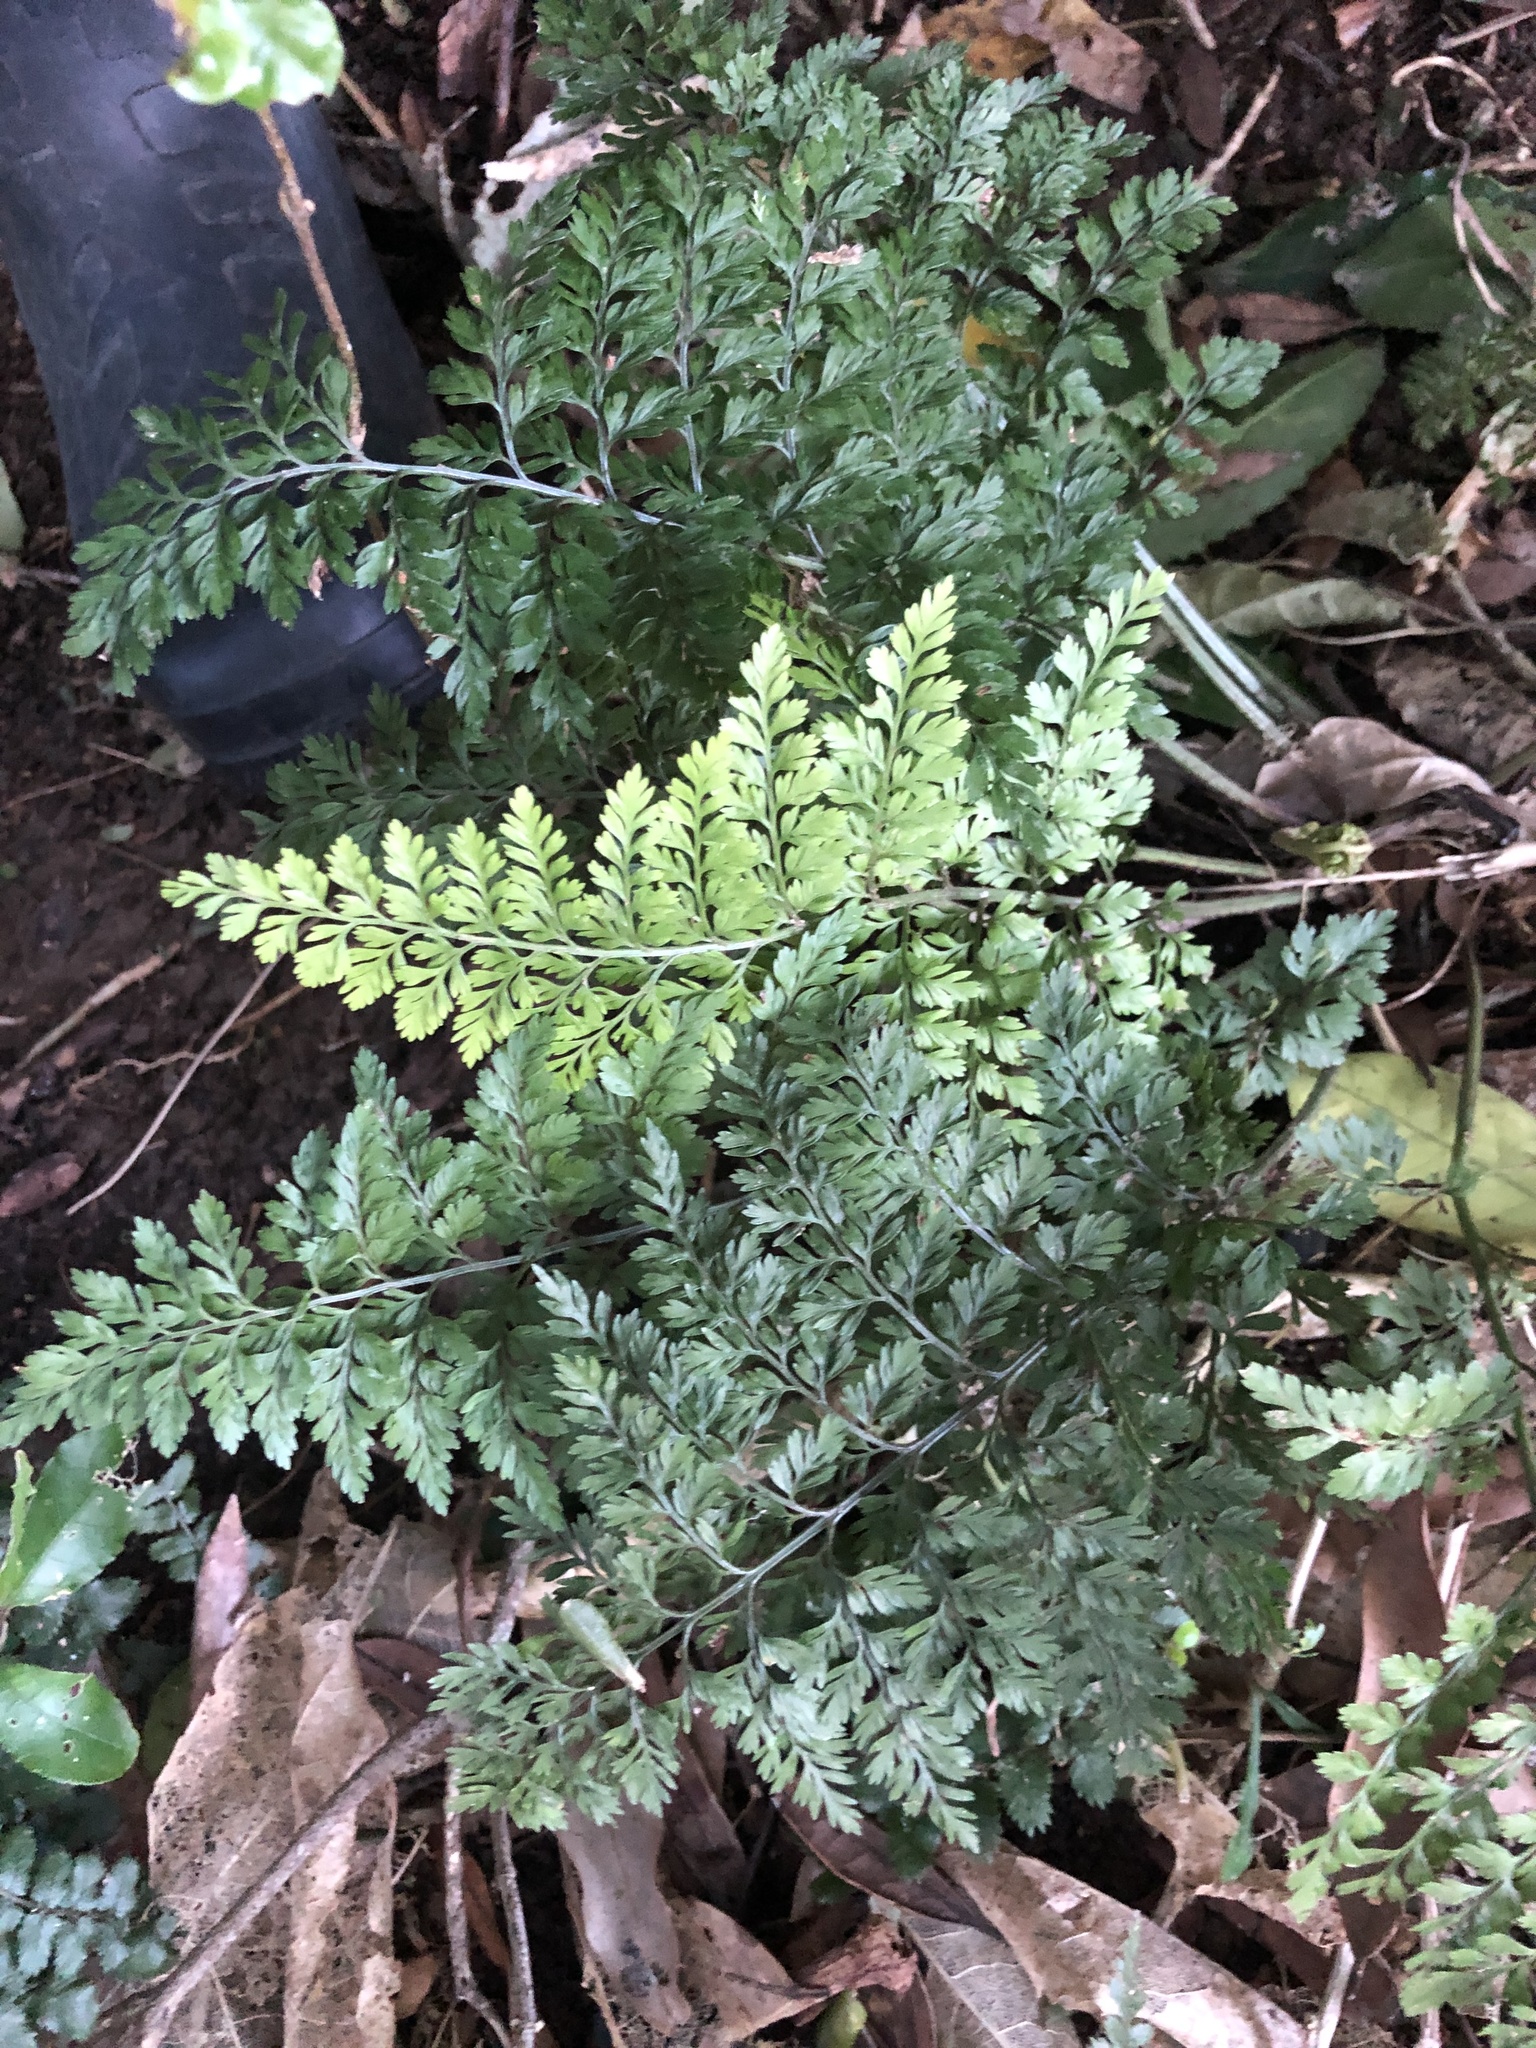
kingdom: Plantae
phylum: Tracheophyta
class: Polypodiopsida
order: Polypodiales
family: Aspleniaceae
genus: Asplenium
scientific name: Asplenium
